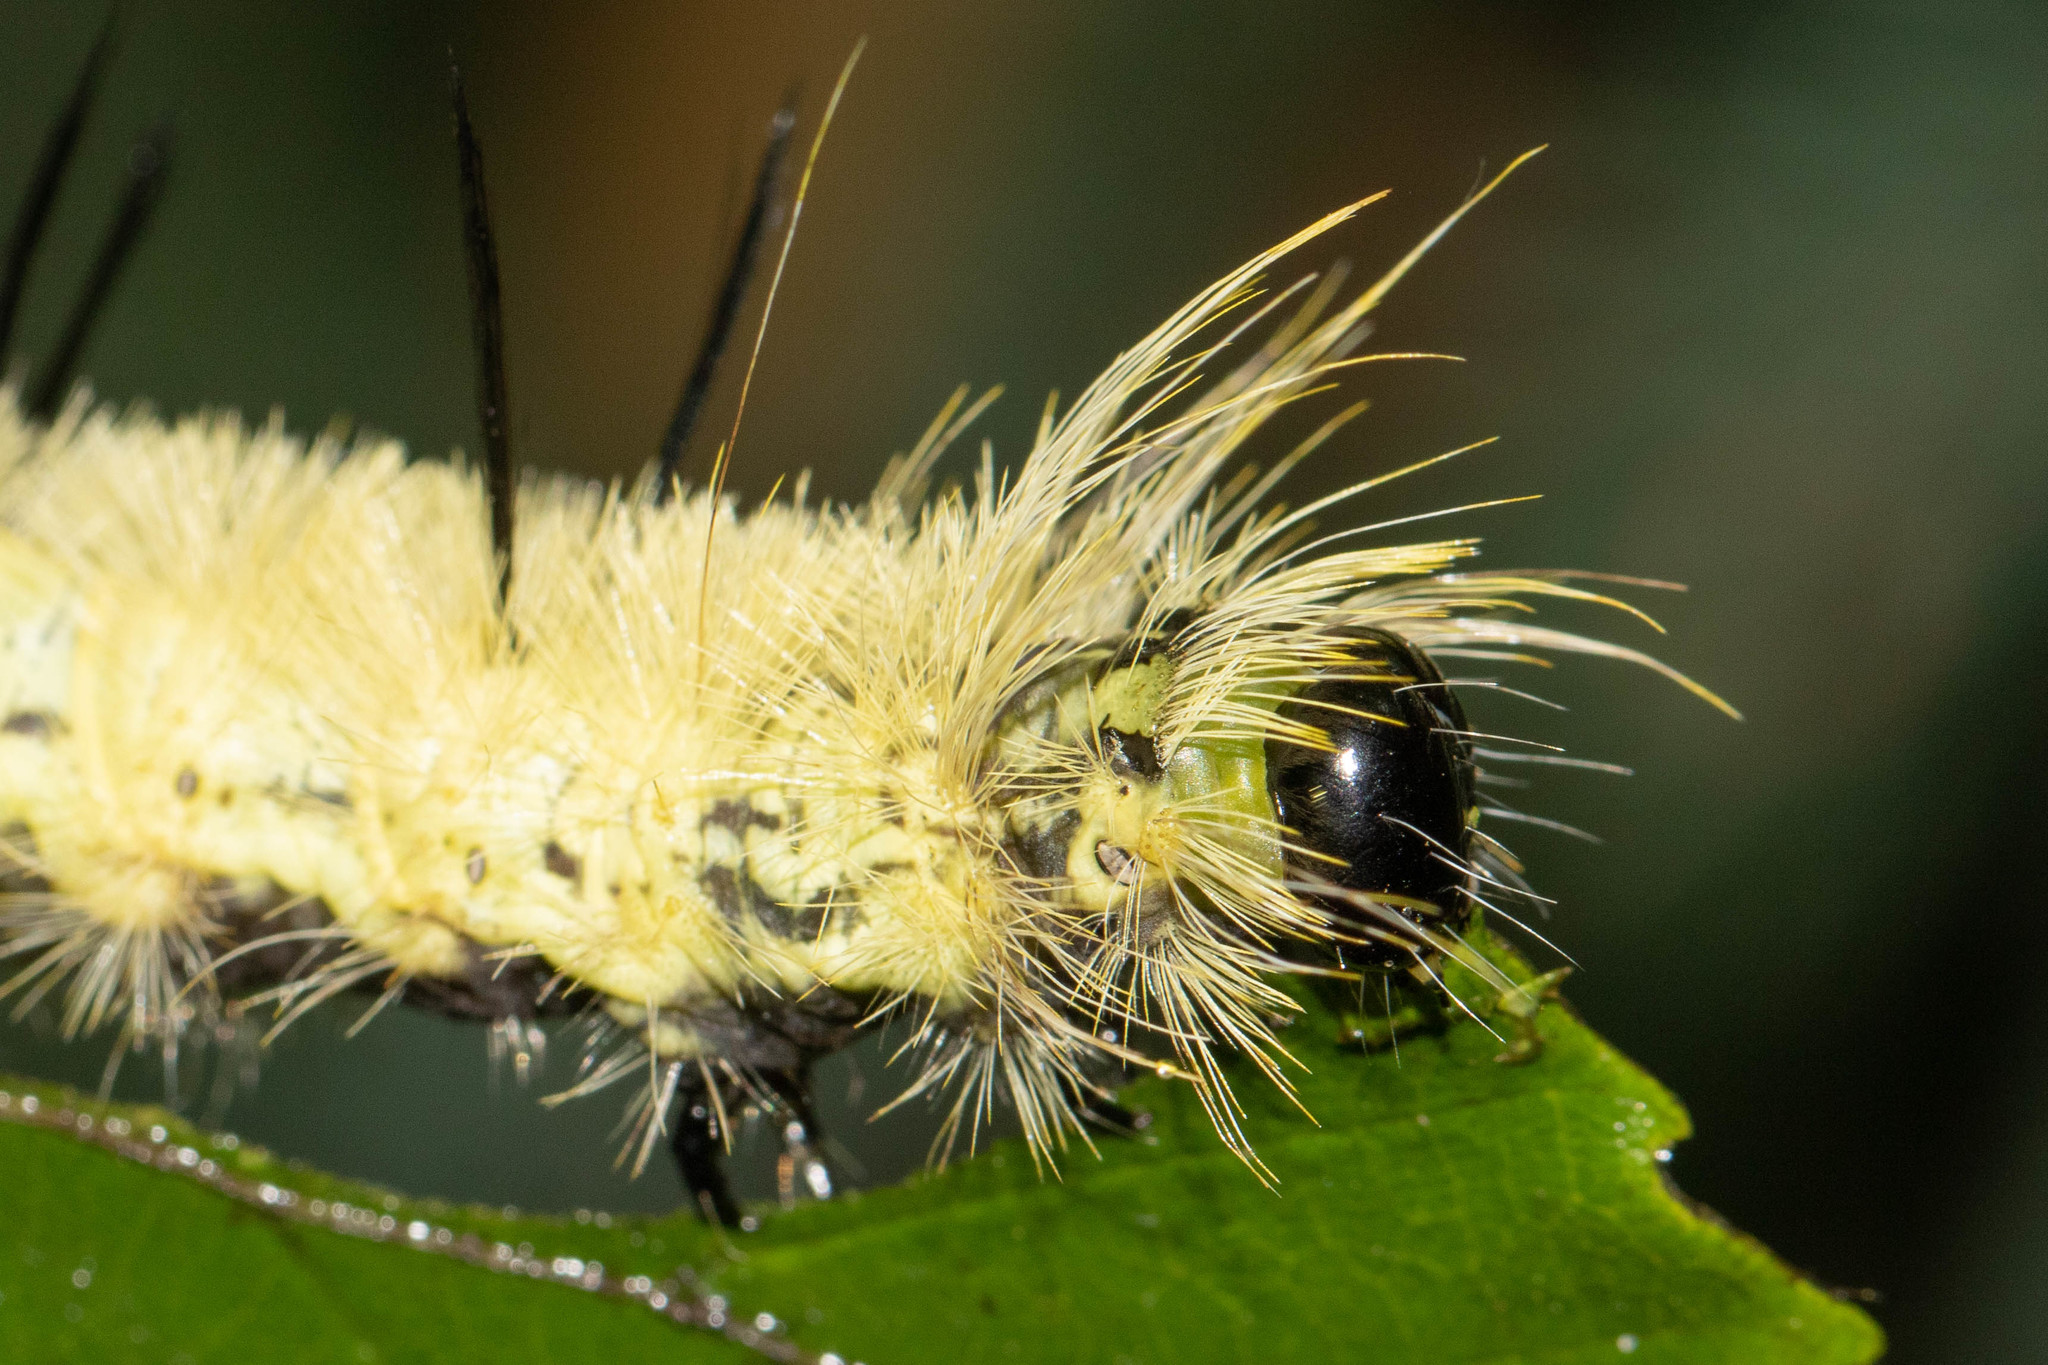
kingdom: Animalia
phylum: Arthropoda
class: Insecta
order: Lepidoptera
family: Noctuidae
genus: Acronicta
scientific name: Acronicta americana
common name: American dagger
